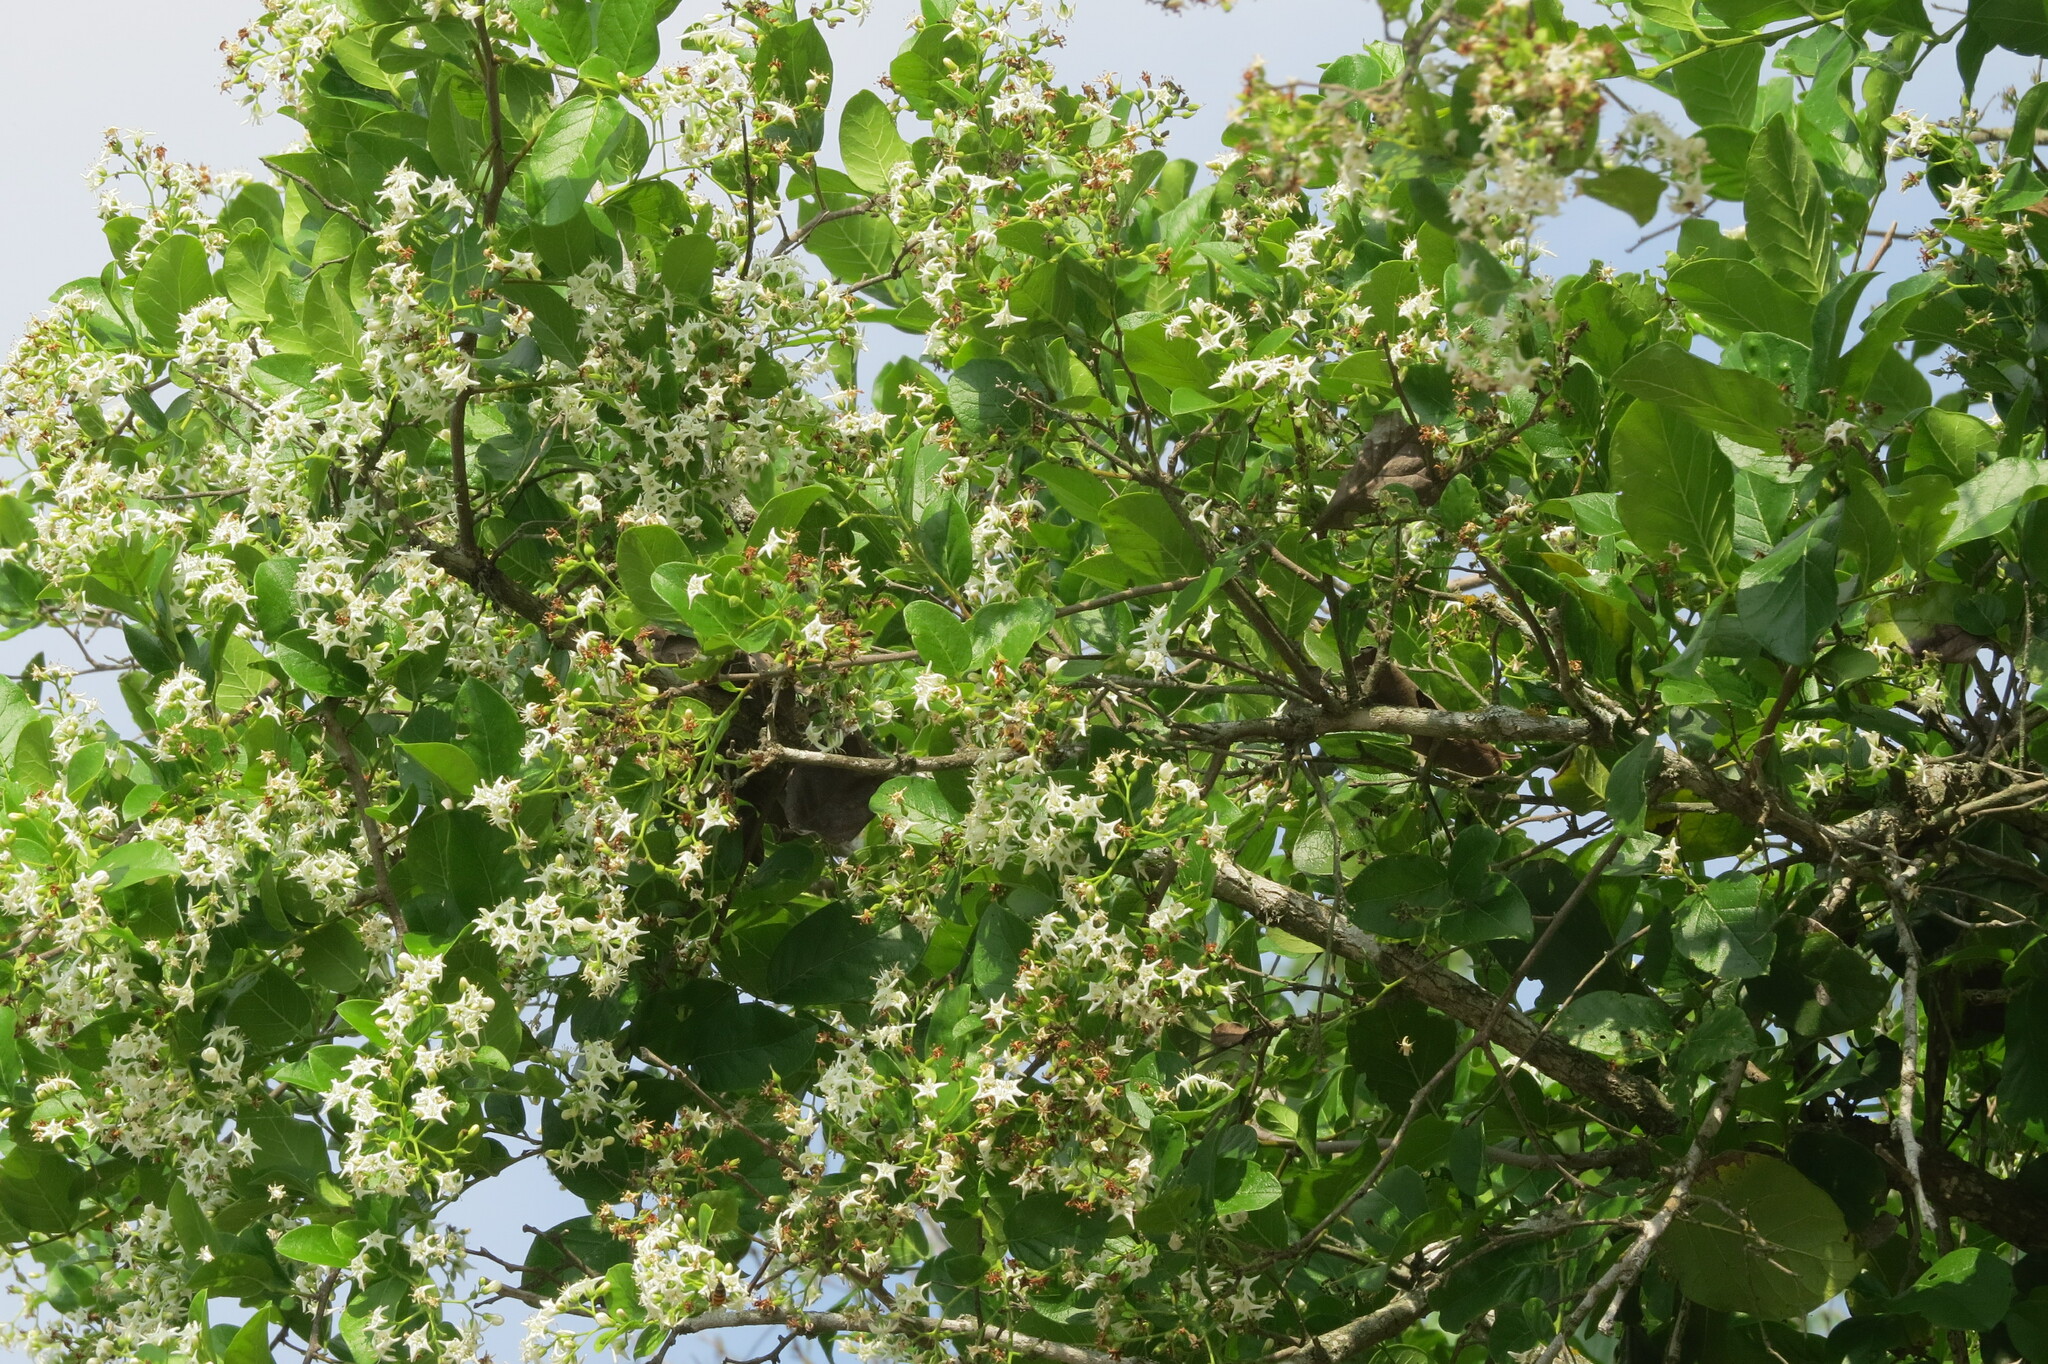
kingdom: Plantae
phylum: Tracheophyta
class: Magnoliopsida
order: Boraginales
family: Ehretiaceae
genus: Ehretia
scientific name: Ehretia anacua
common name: Sugarberry
